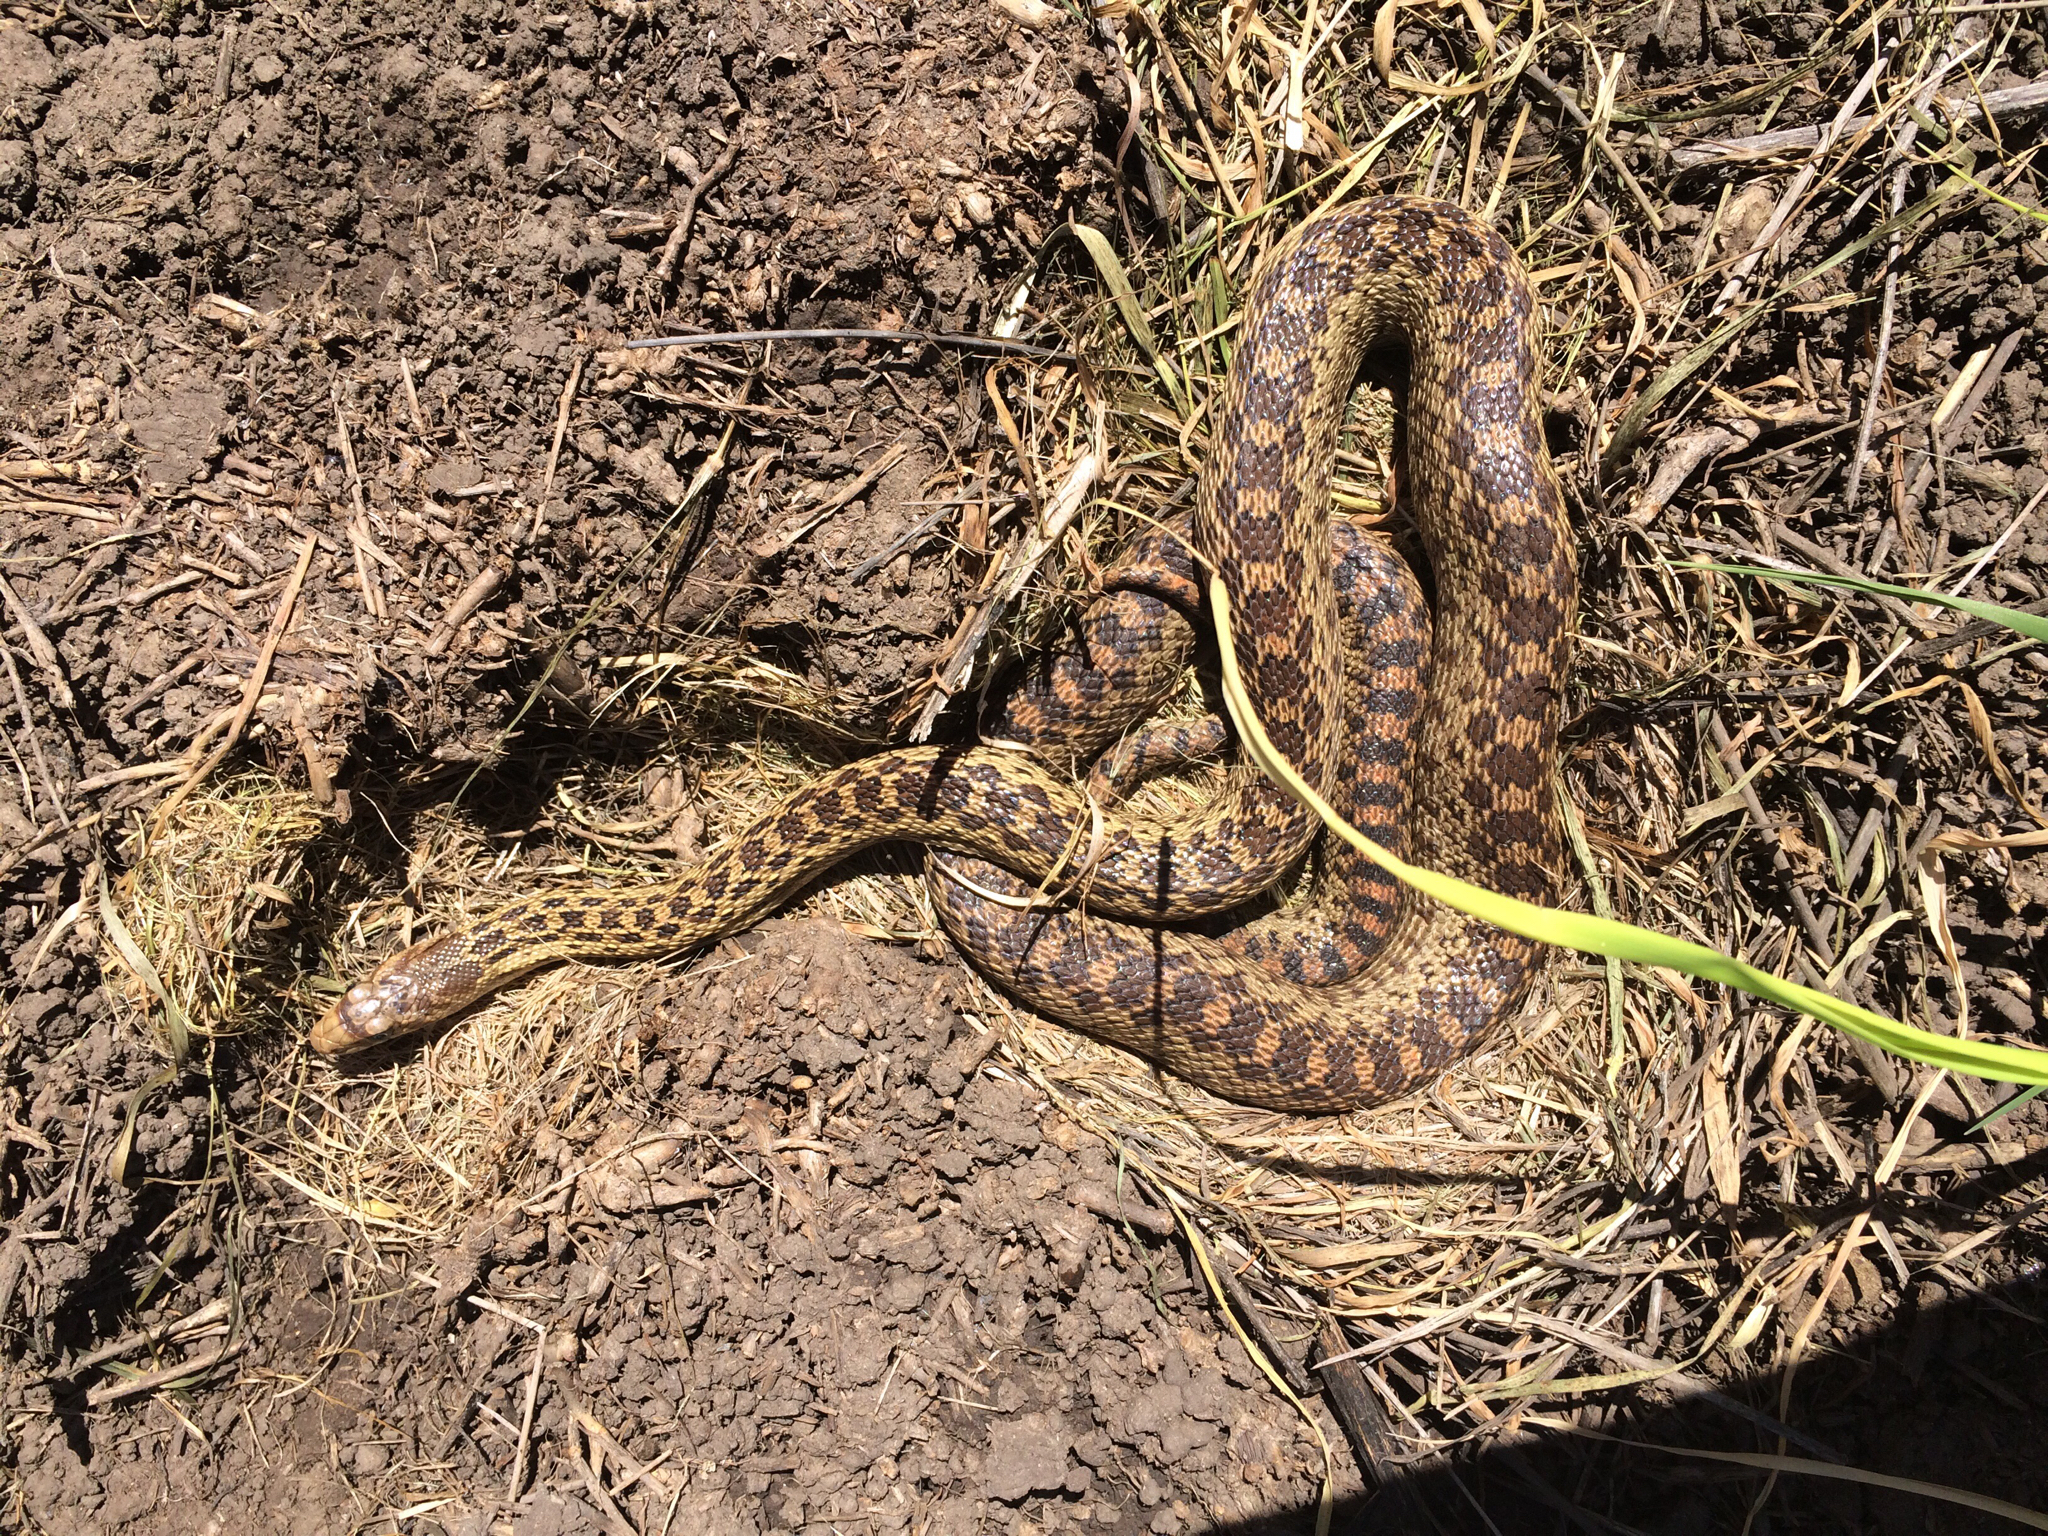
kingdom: Animalia
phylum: Chordata
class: Squamata
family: Colubridae
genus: Pituophis
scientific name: Pituophis catenifer
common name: Gopher snake
